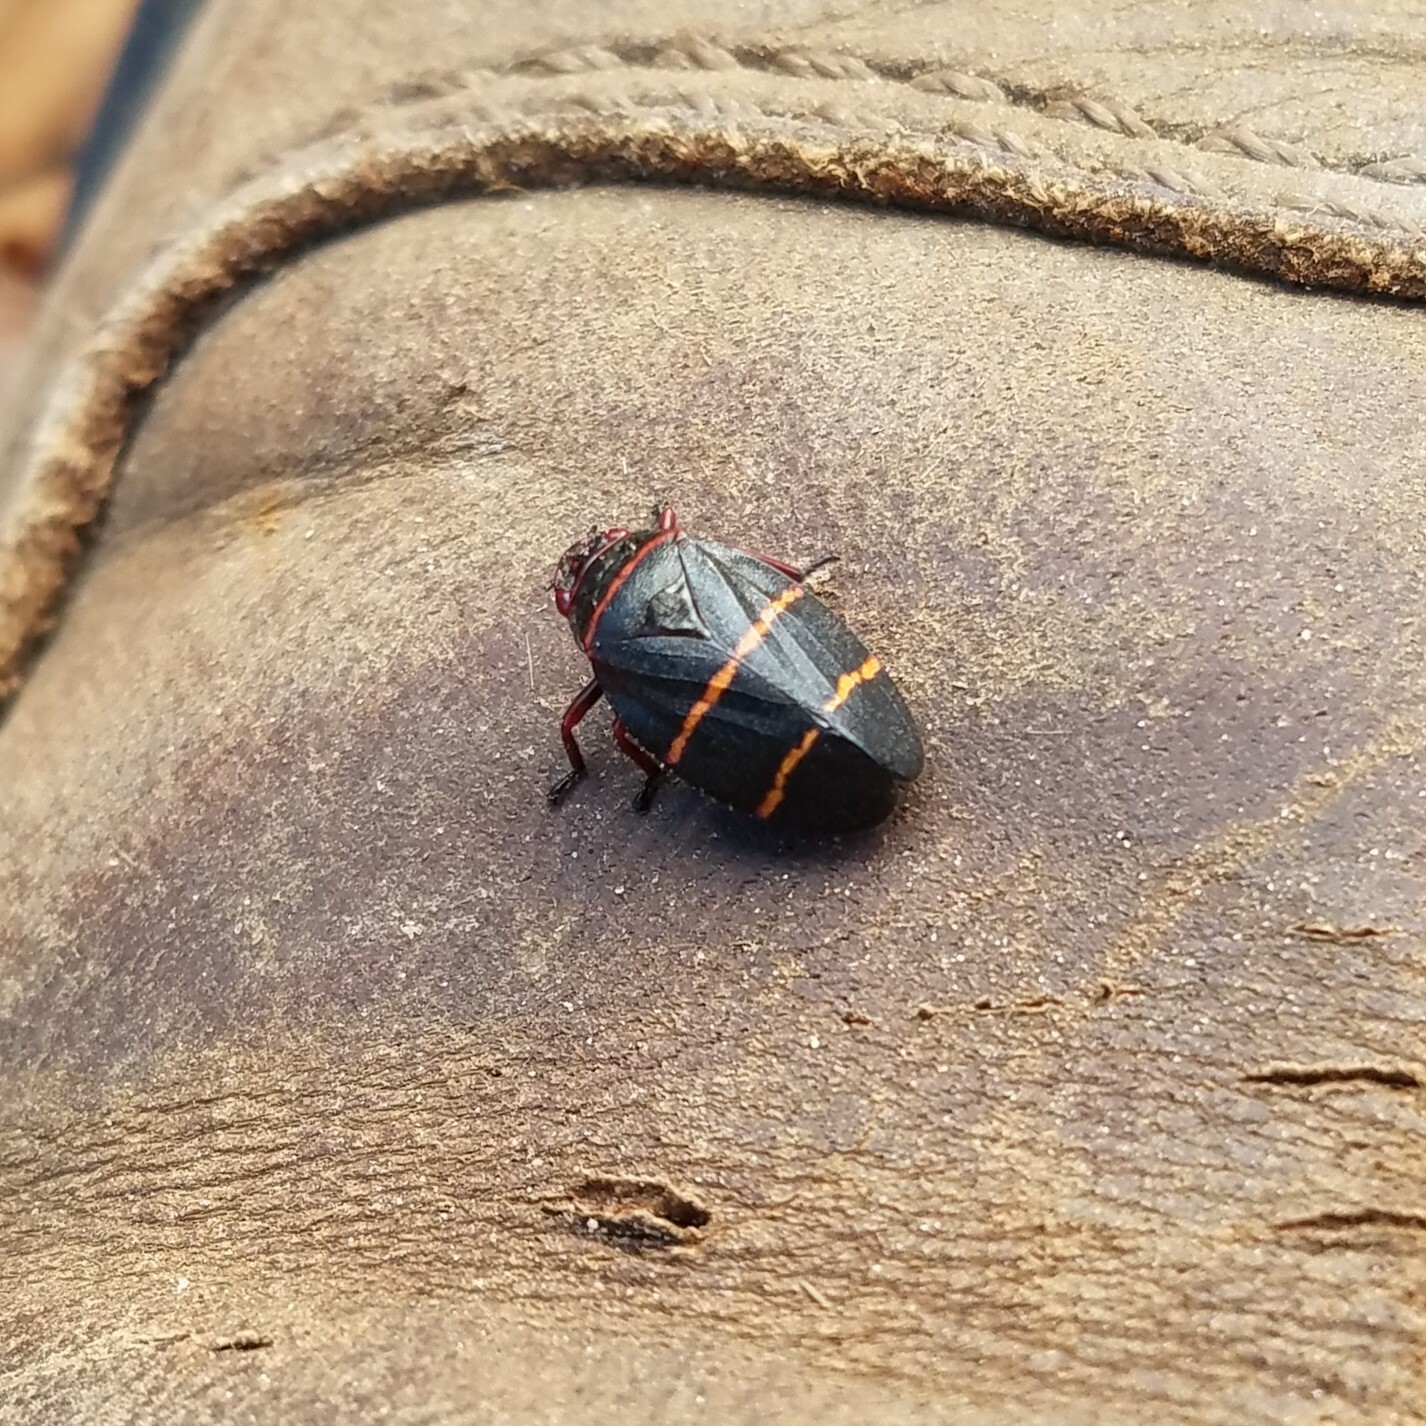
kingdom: Animalia
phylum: Arthropoda
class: Insecta
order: Hemiptera
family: Cercopidae
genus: Prosapia
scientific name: Prosapia bicincta
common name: Twolined spittlebug
